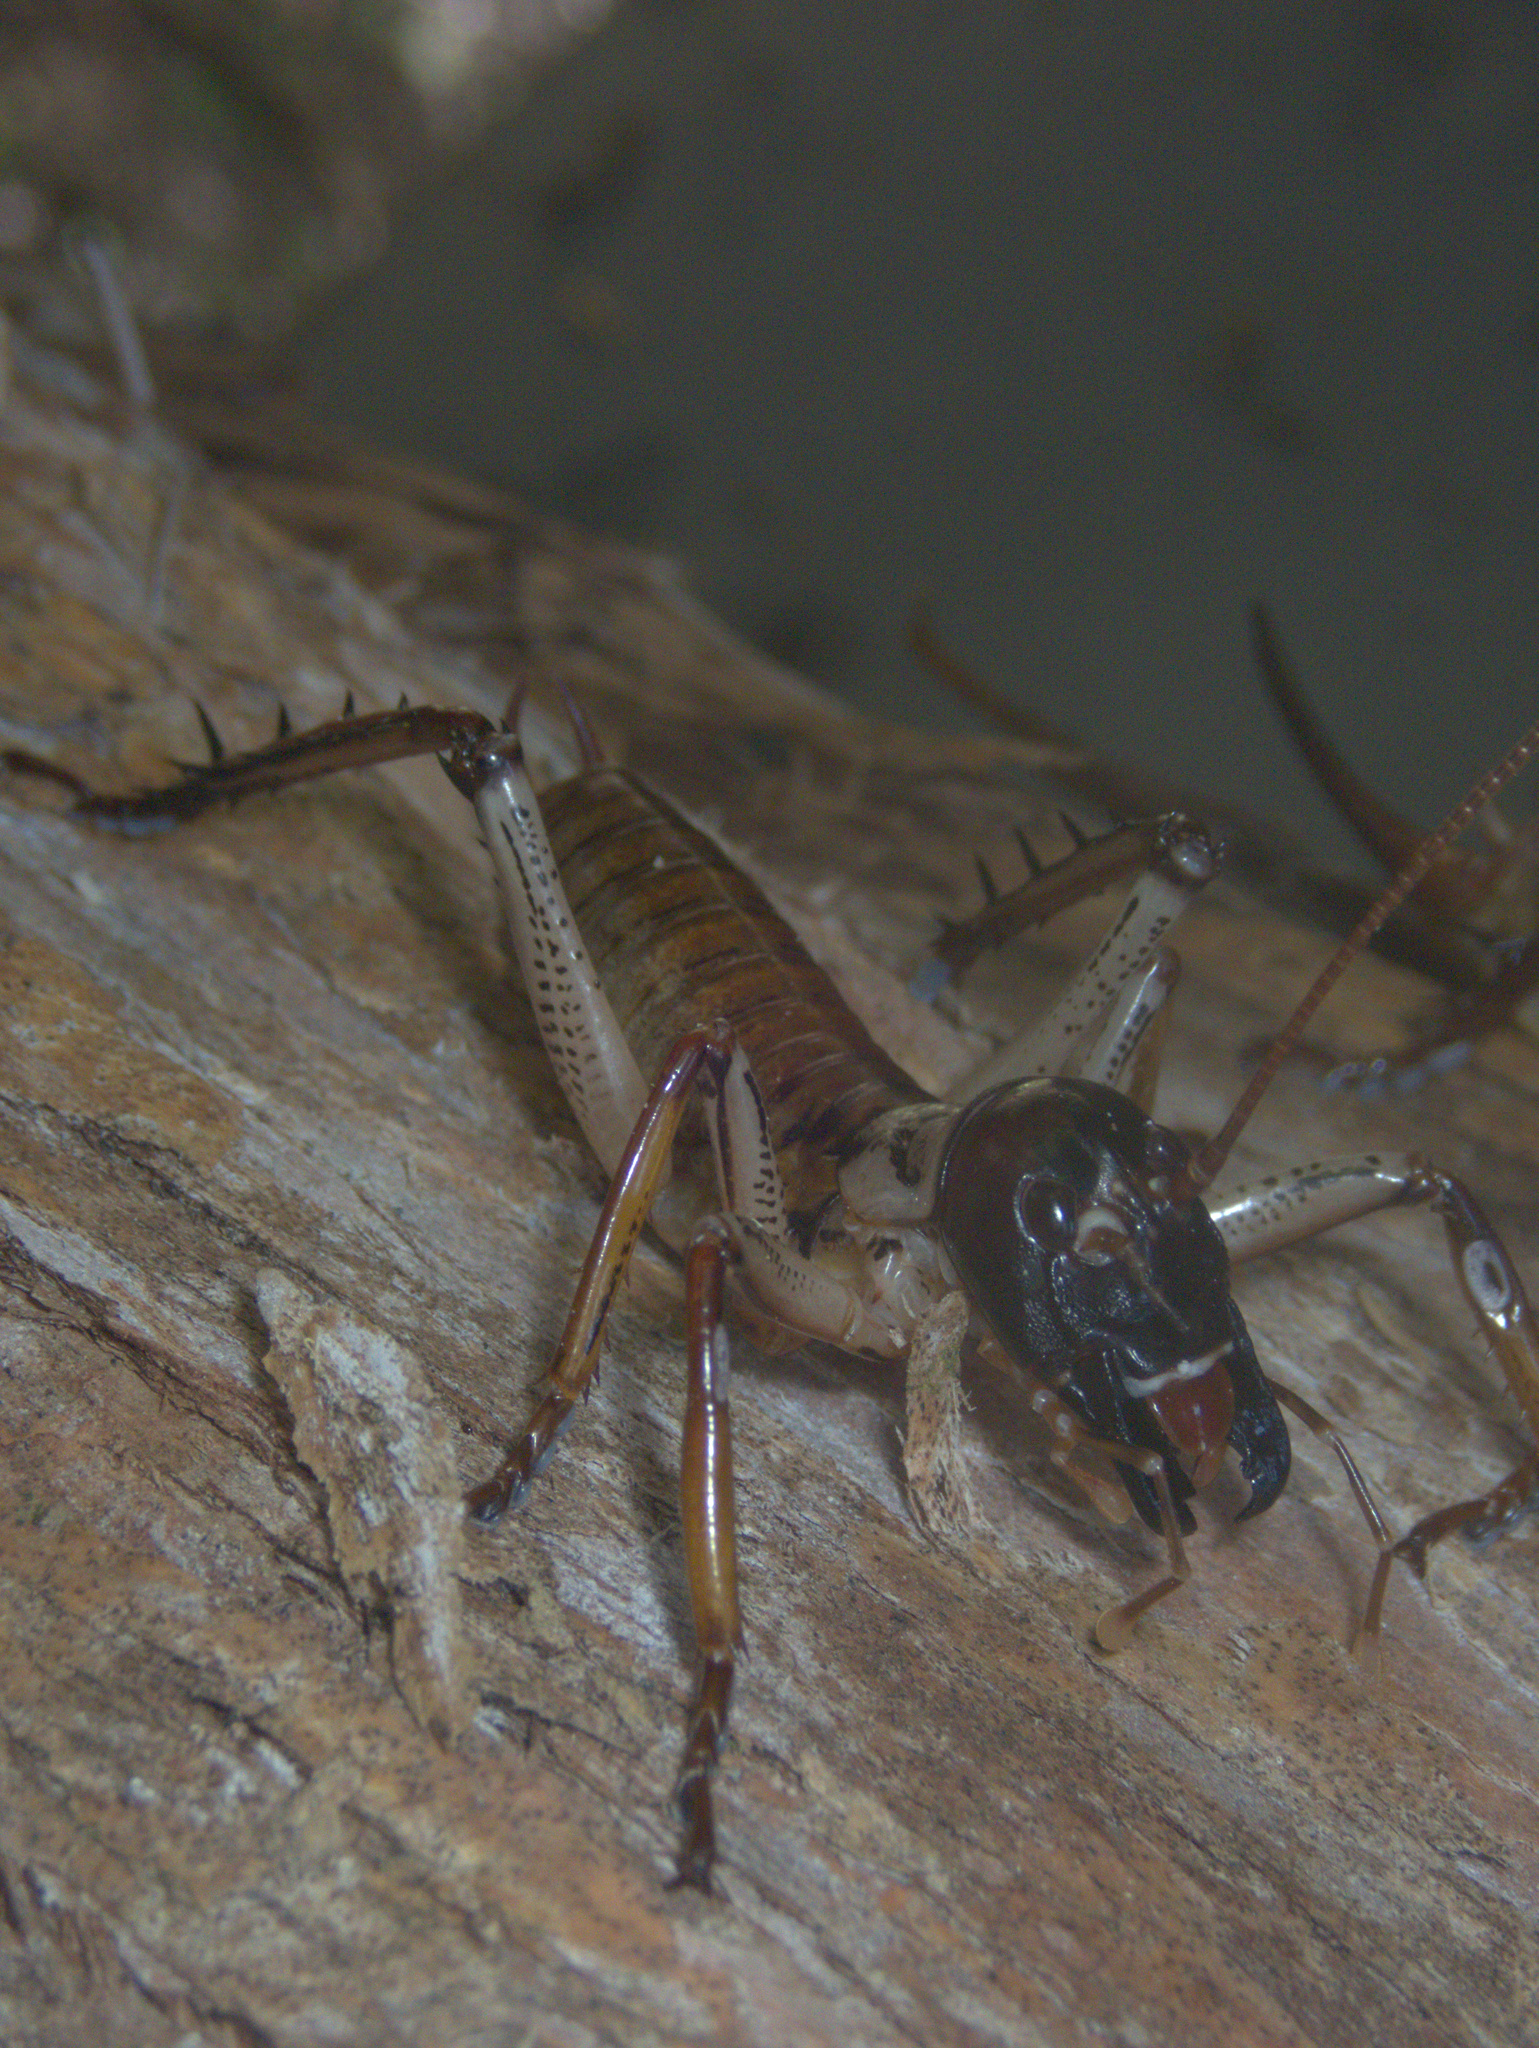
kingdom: Animalia
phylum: Arthropoda
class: Insecta
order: Orthoptera
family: Anostostomatidae
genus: Hemideina
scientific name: Hemideina thoracica
